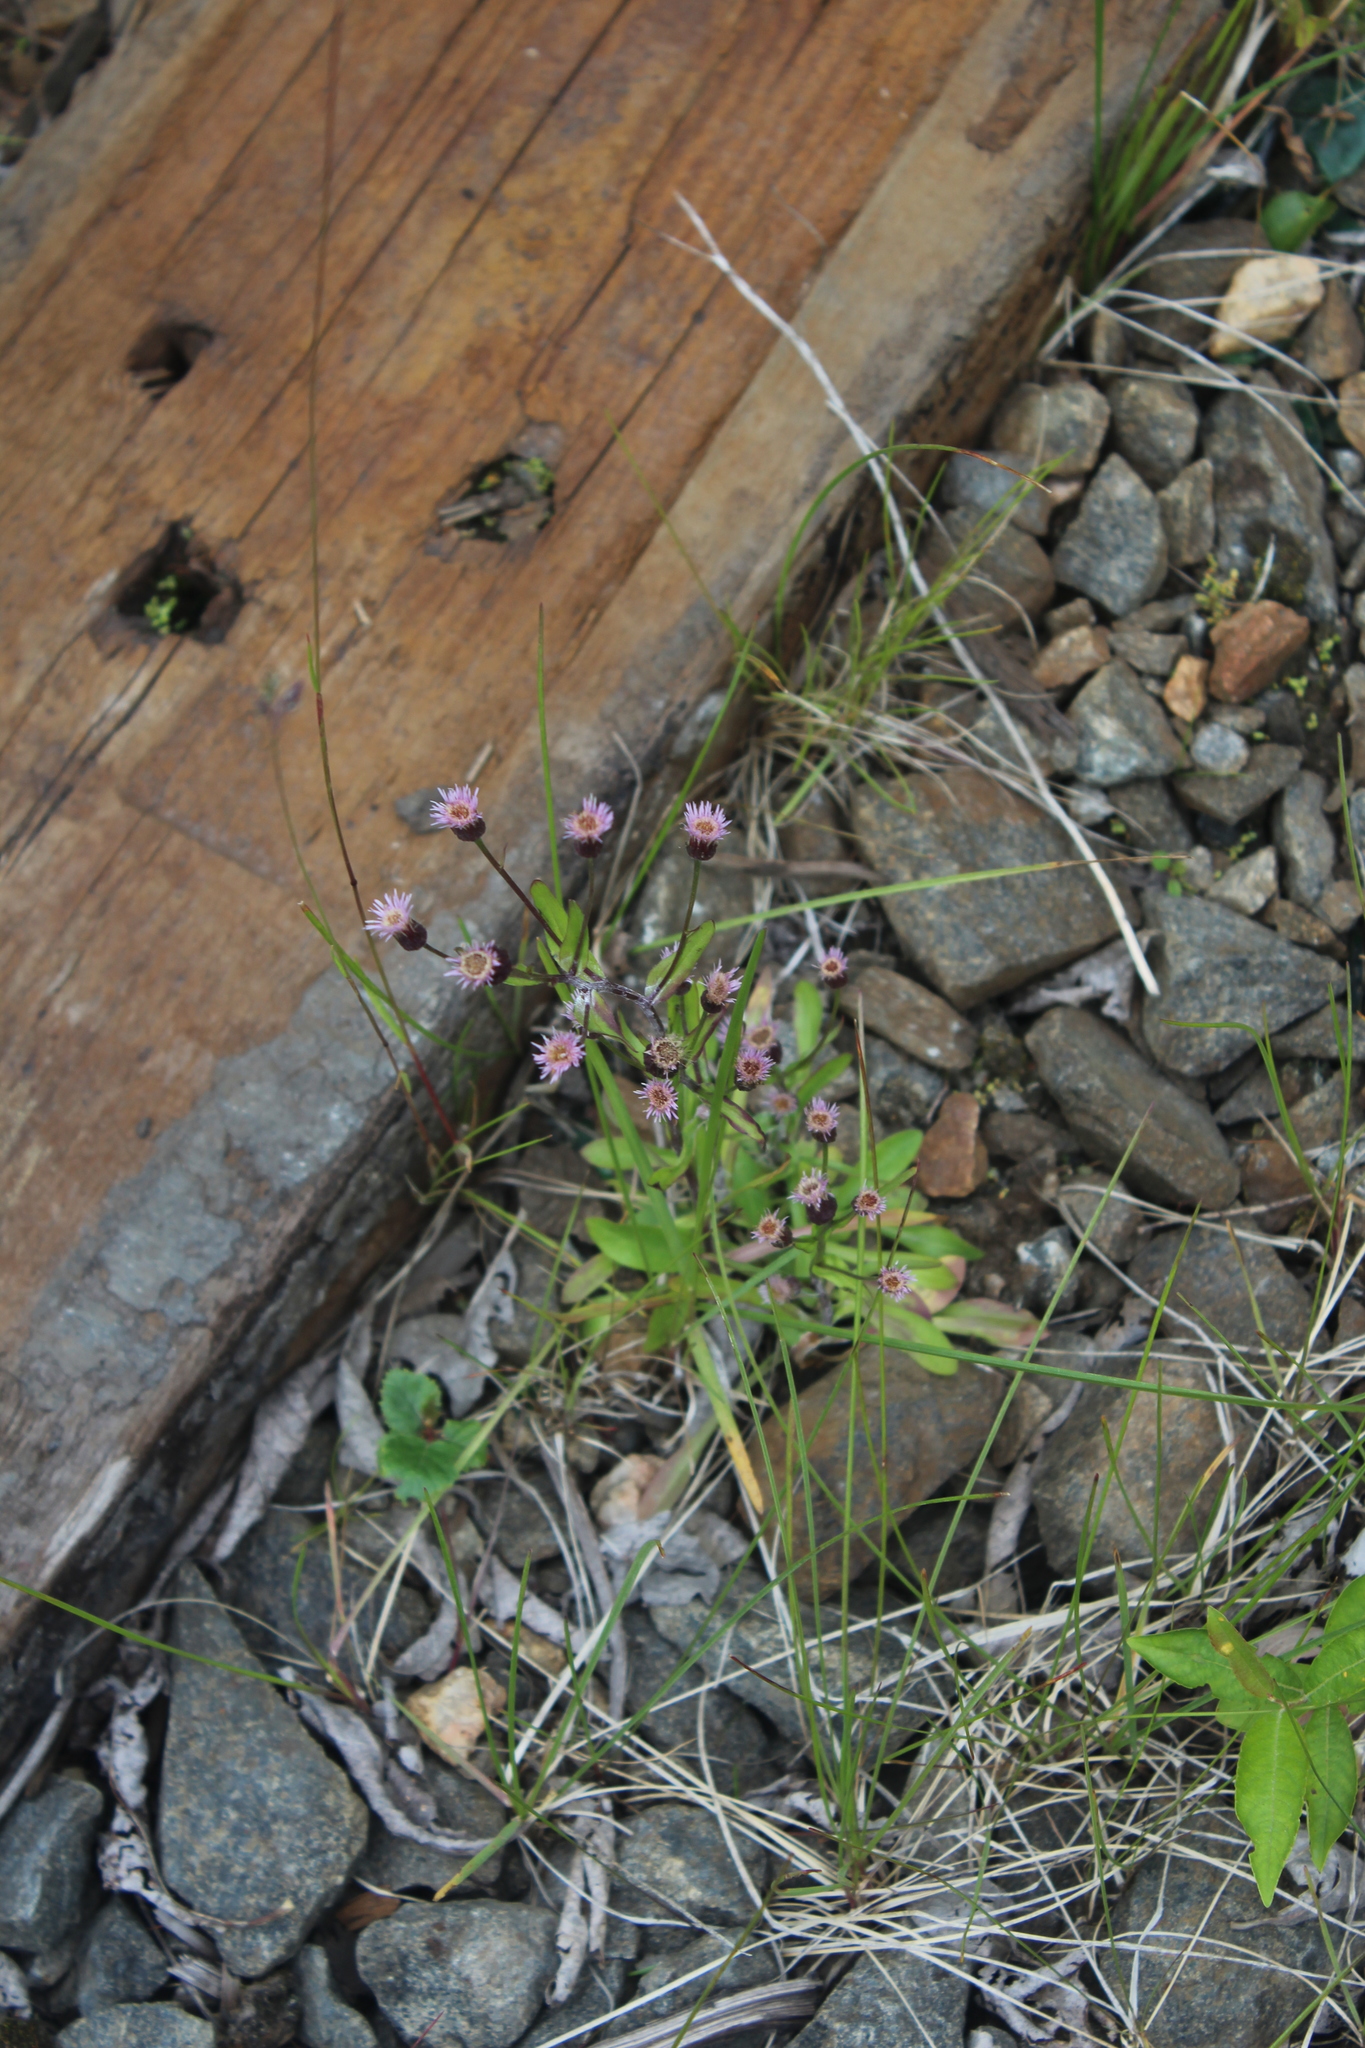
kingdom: Plantae
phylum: Tracheophyta
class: Magnoliopsida
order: Asterales
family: Asteraceae
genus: Erigeron
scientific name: Erigeron acris
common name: Blue fleabane
